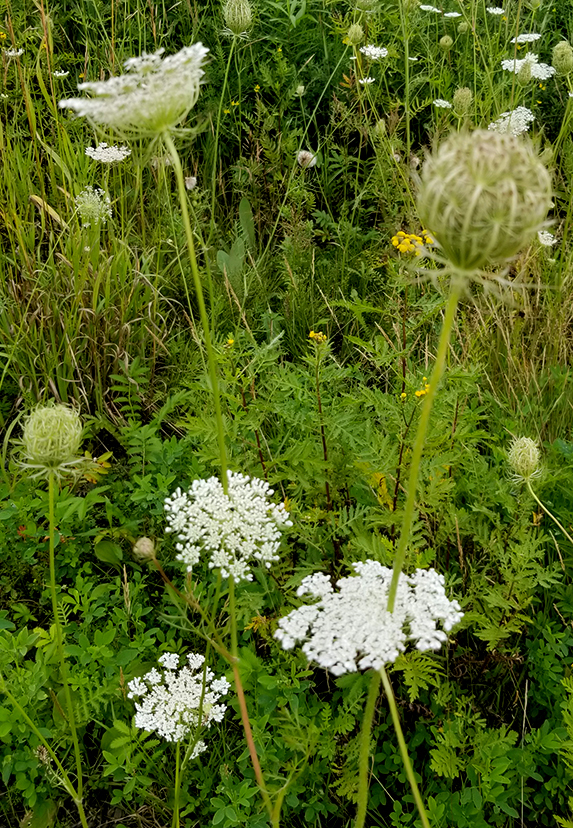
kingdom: Plantae
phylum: Tracheophyta
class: Magnoliopsida
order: Apiales
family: Apiaceae
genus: Daucus
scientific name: Daucus carota
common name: Wild carrot
